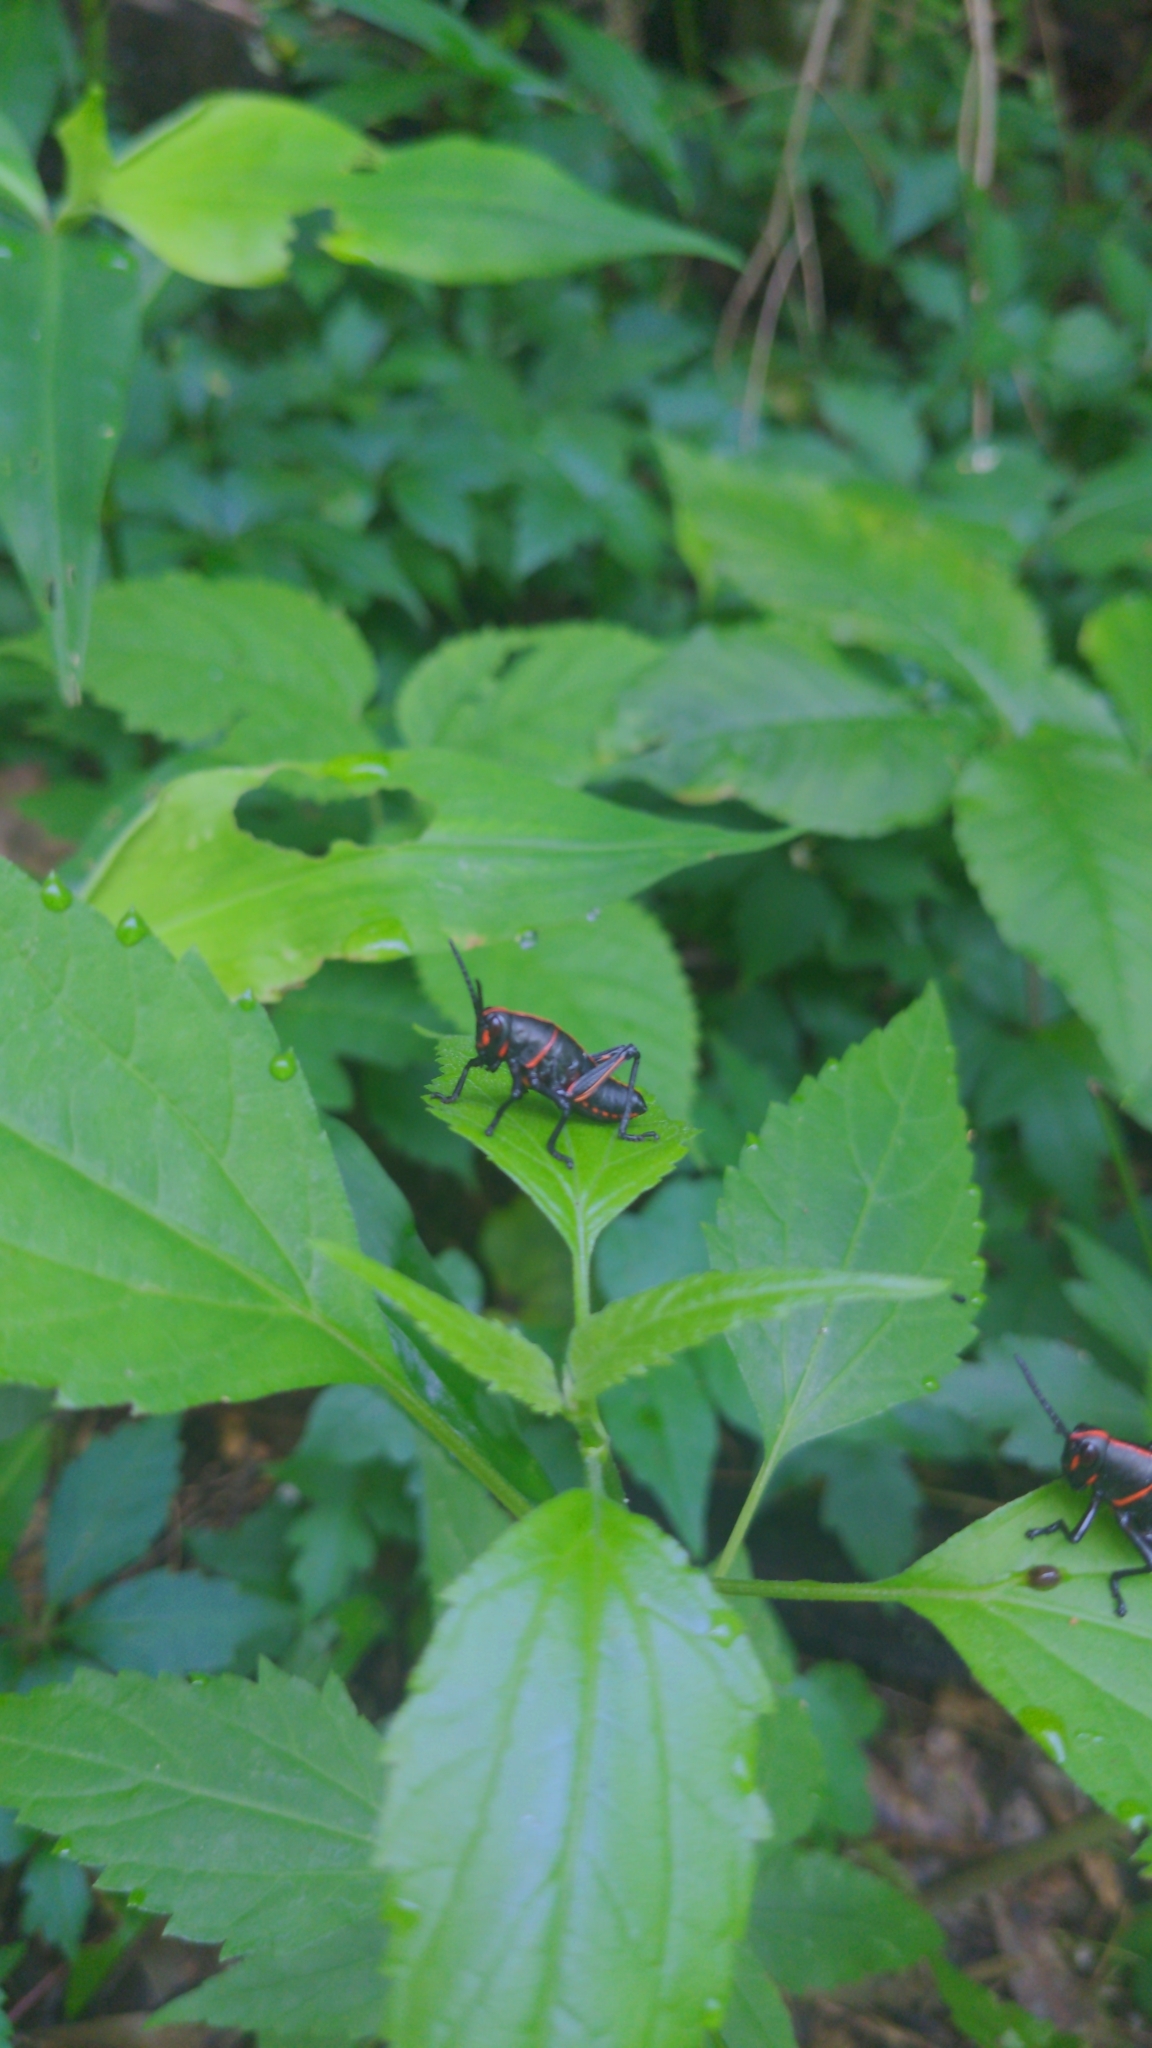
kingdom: Animalia
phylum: Arthropoda
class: Insecta
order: Orthoptera
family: Romaleidae
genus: Romalea
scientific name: Romalea microptera
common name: Eastern lubber grasshopper
